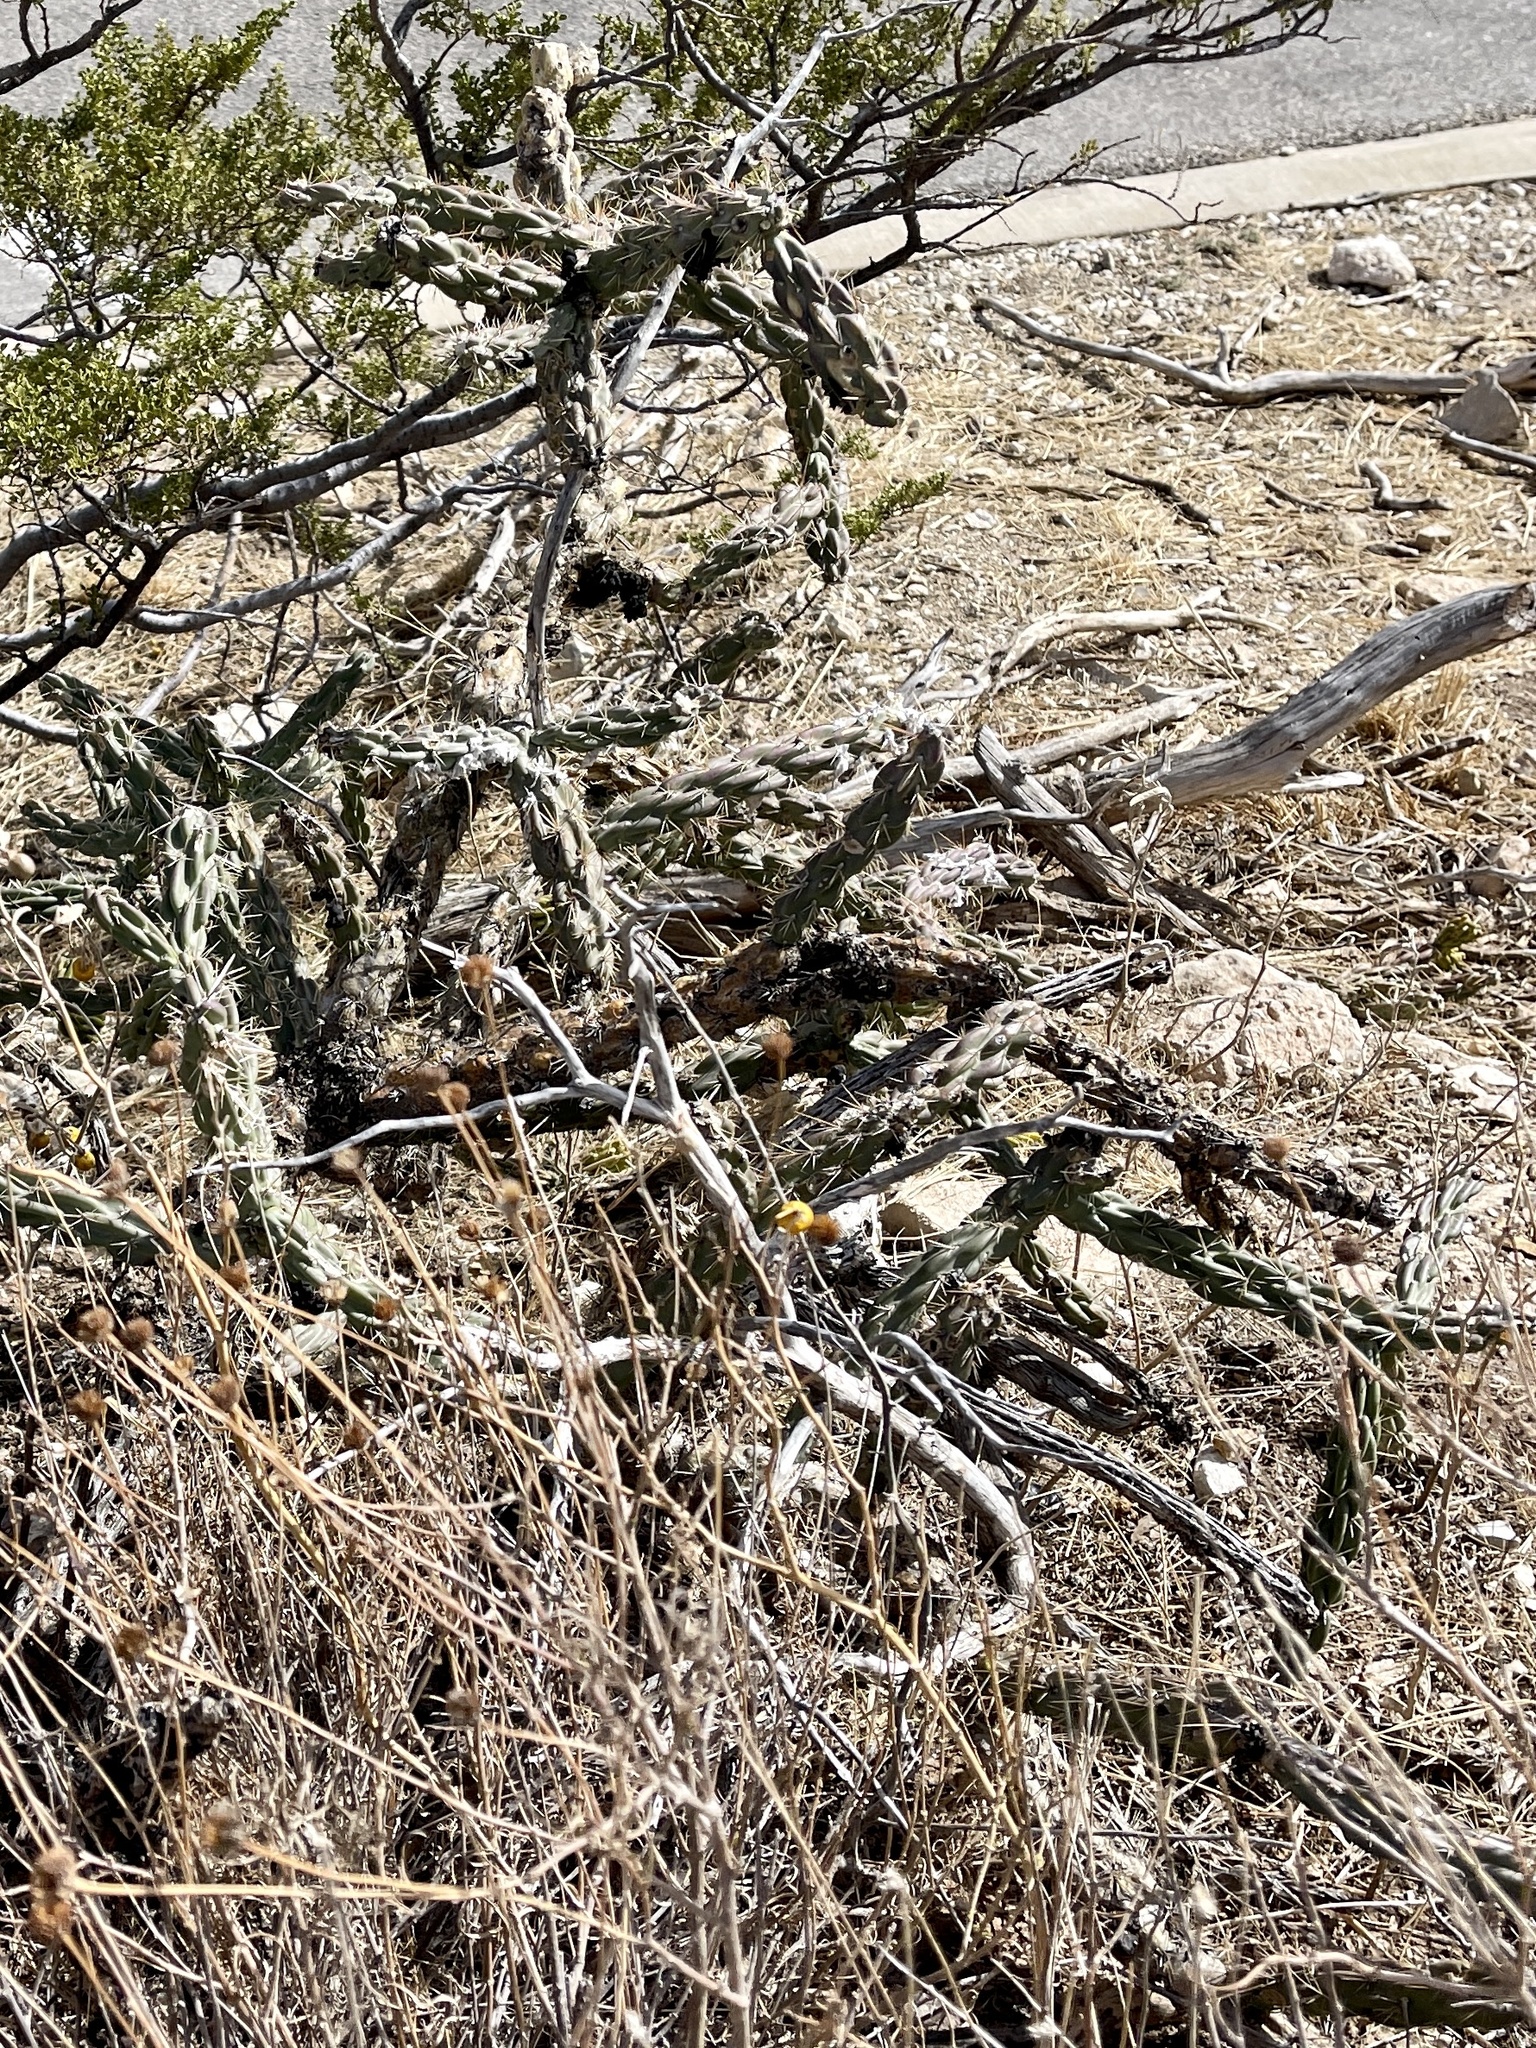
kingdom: Plantae
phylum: Tracheophyta
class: Magnoliopsida
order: Caryophyllales
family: Cactaceae
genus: Cylindropuntia
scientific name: Cylindropuntia imbricata
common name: Candelabrum cactus
